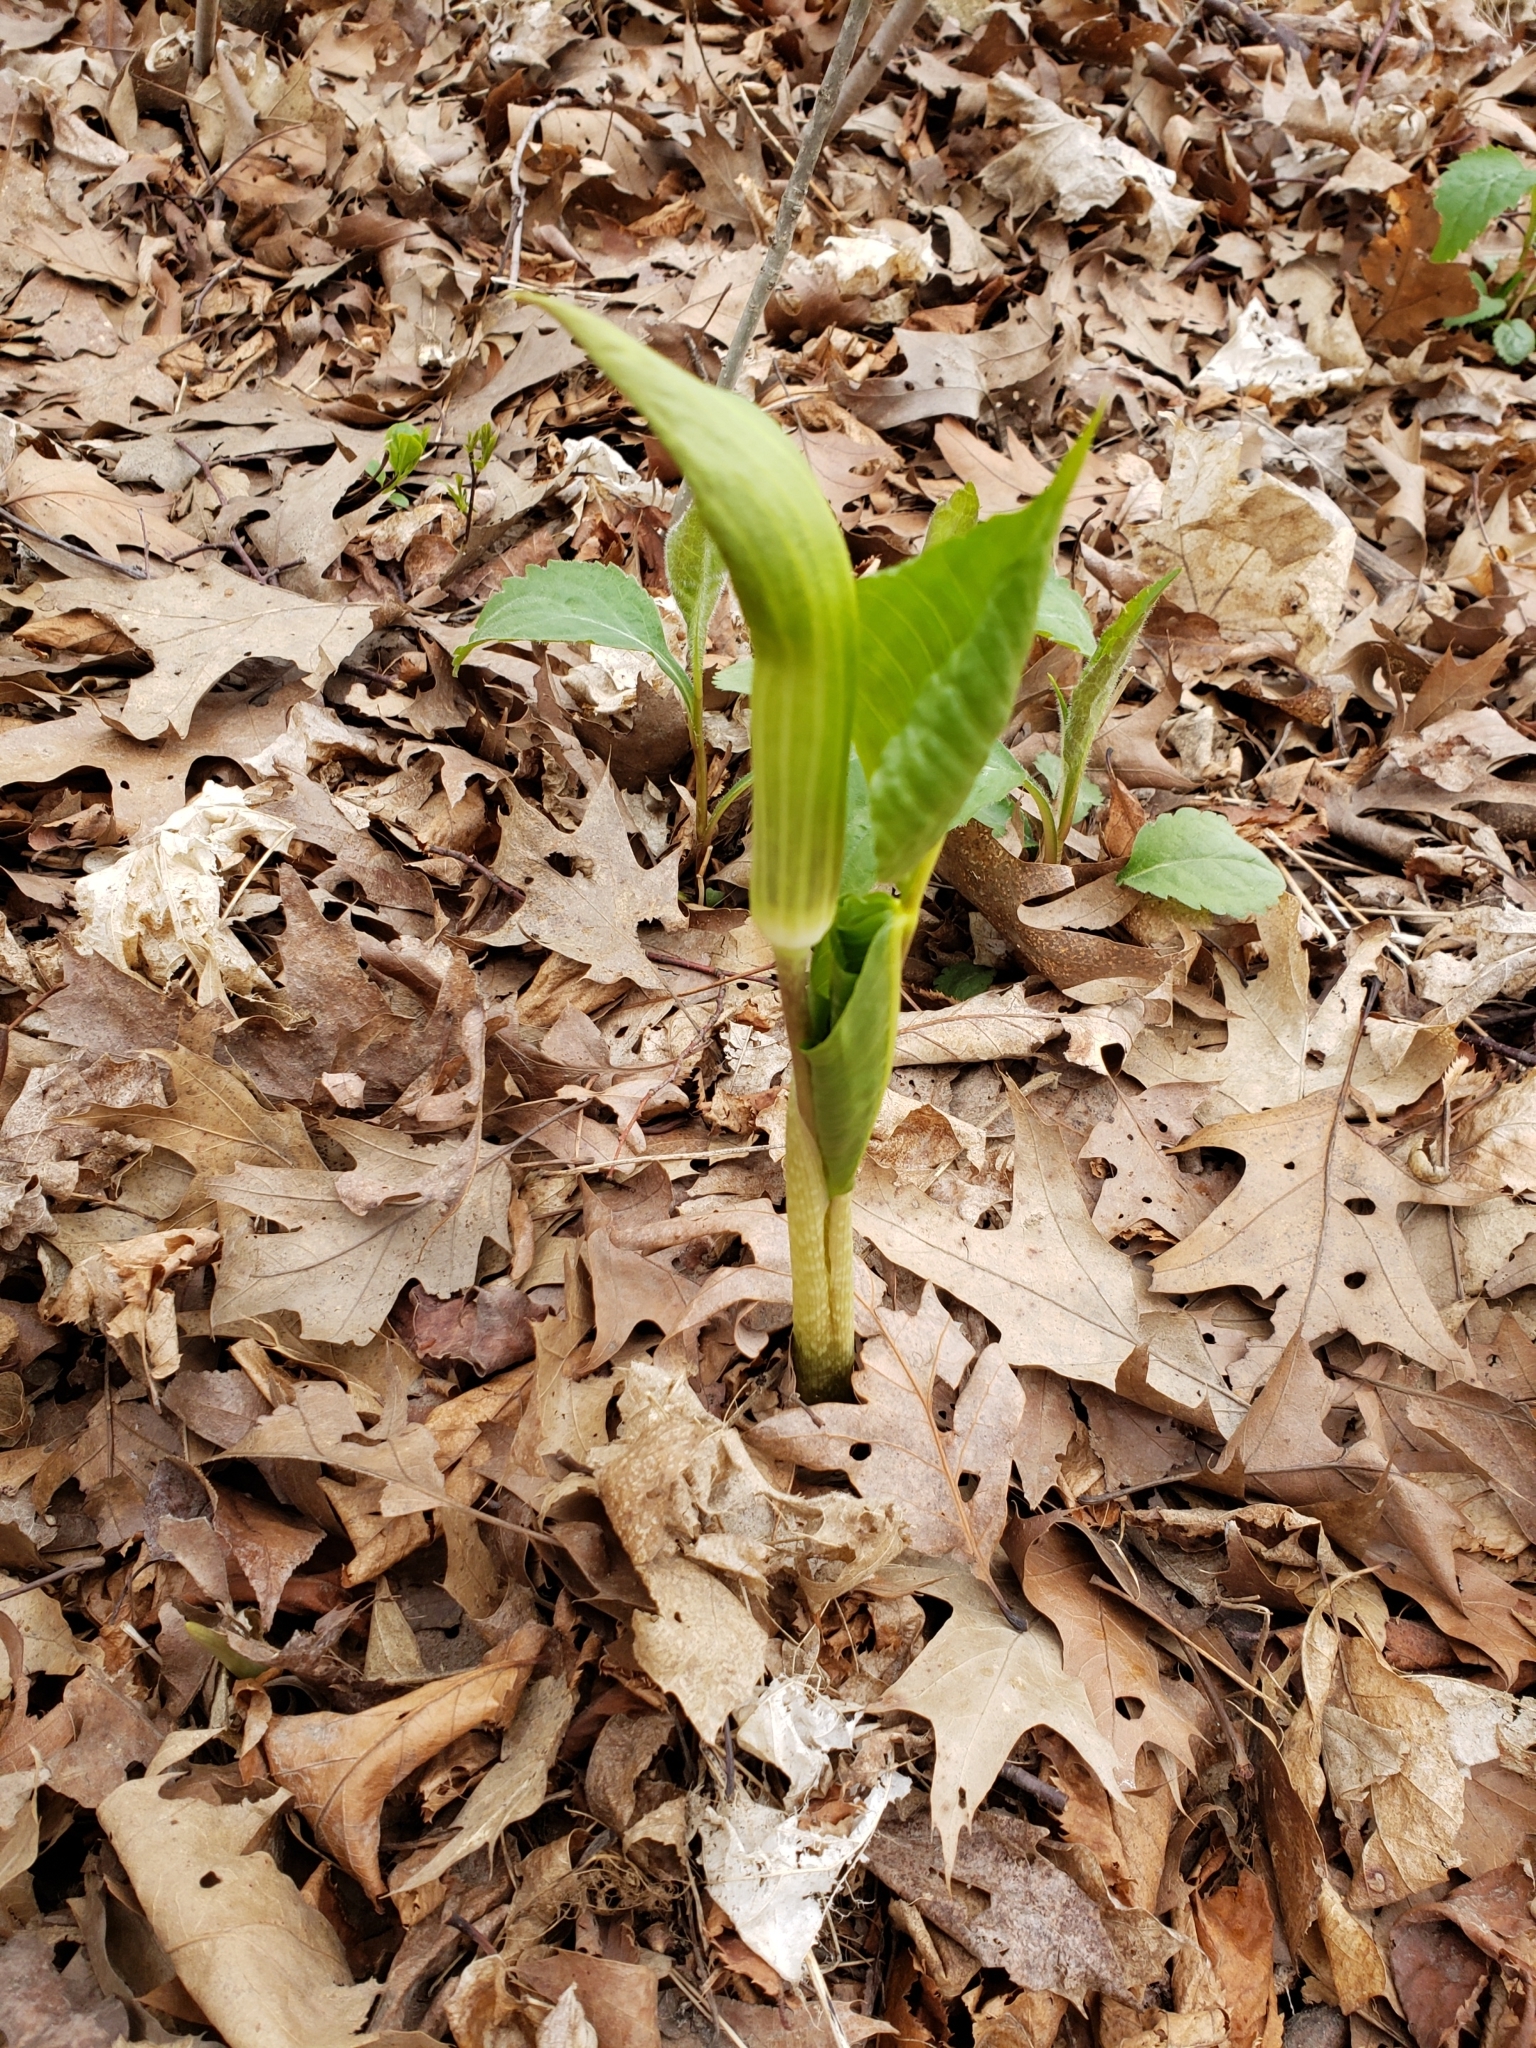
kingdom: Plantae
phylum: Tracheophyta
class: Liliopsida
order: Alismatales
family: Araceae
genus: Arisaema
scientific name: Arisaema triphyllum
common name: Jack-in-the-pulpit
